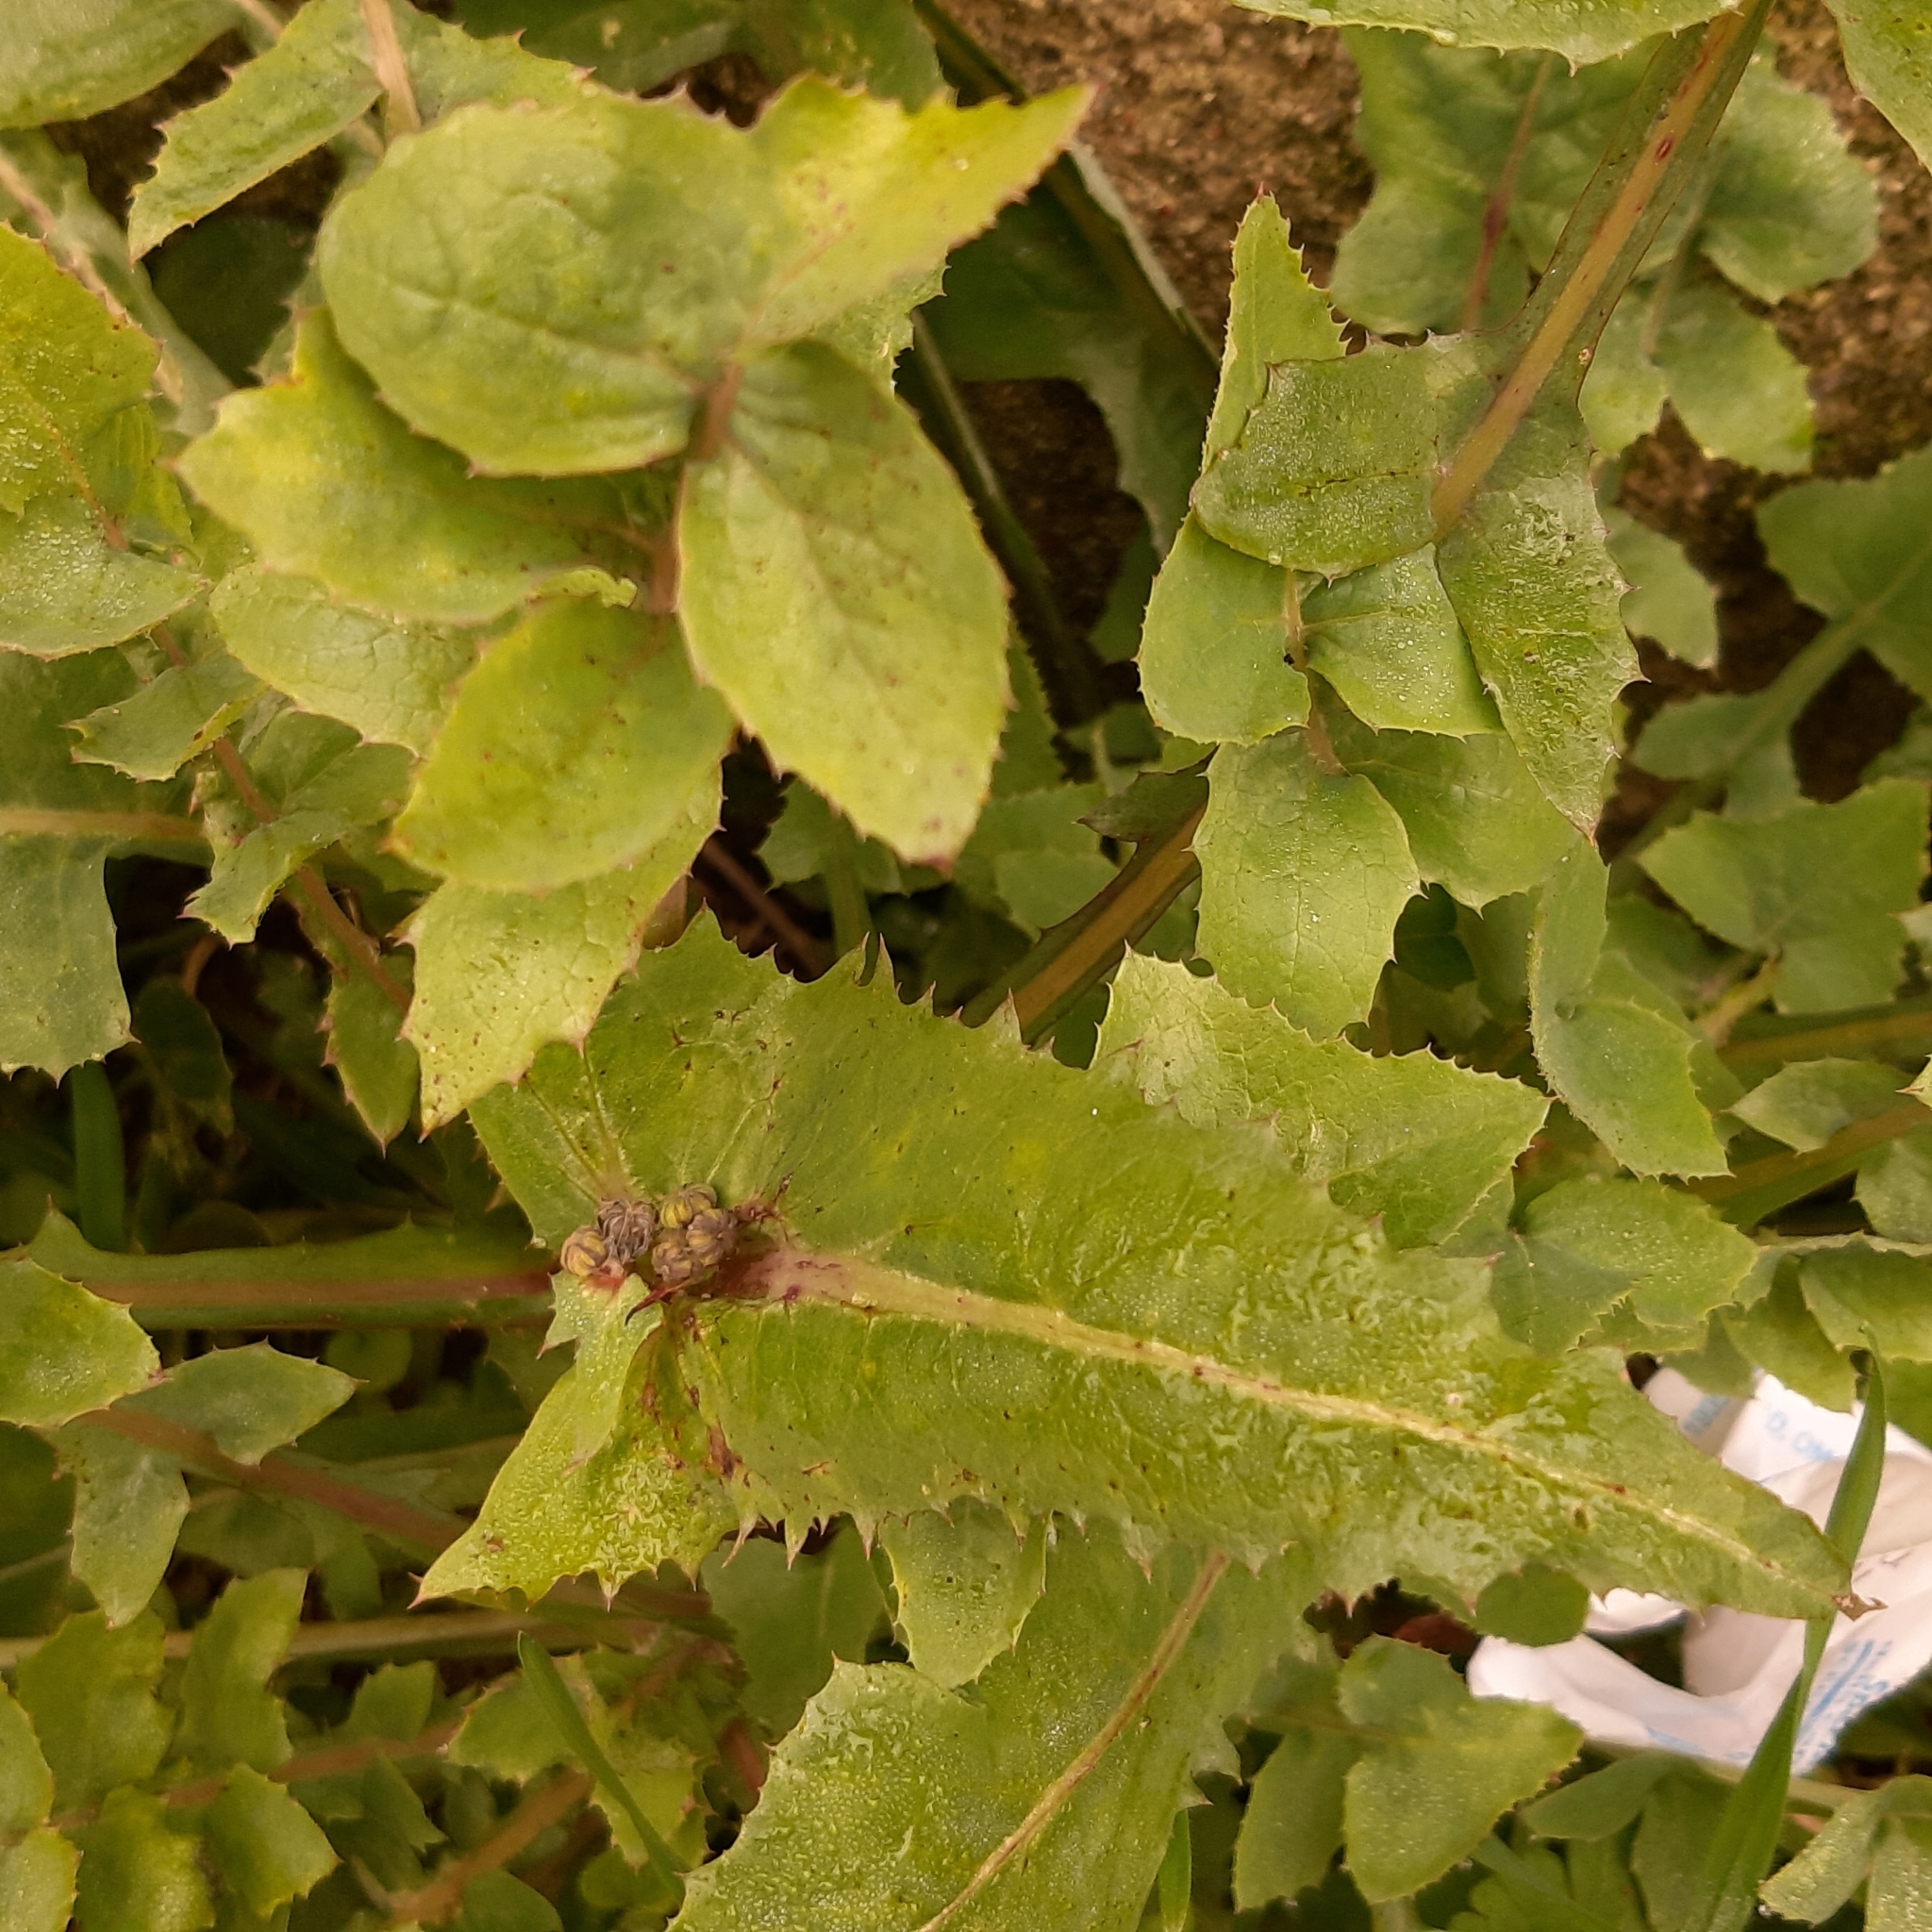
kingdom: Plantae
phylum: Tracheophyta
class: Magnoliopsida
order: Asterales
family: Asteraceae
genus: Sonchus
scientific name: Sonchus oleraceus
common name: Common sowthistle
